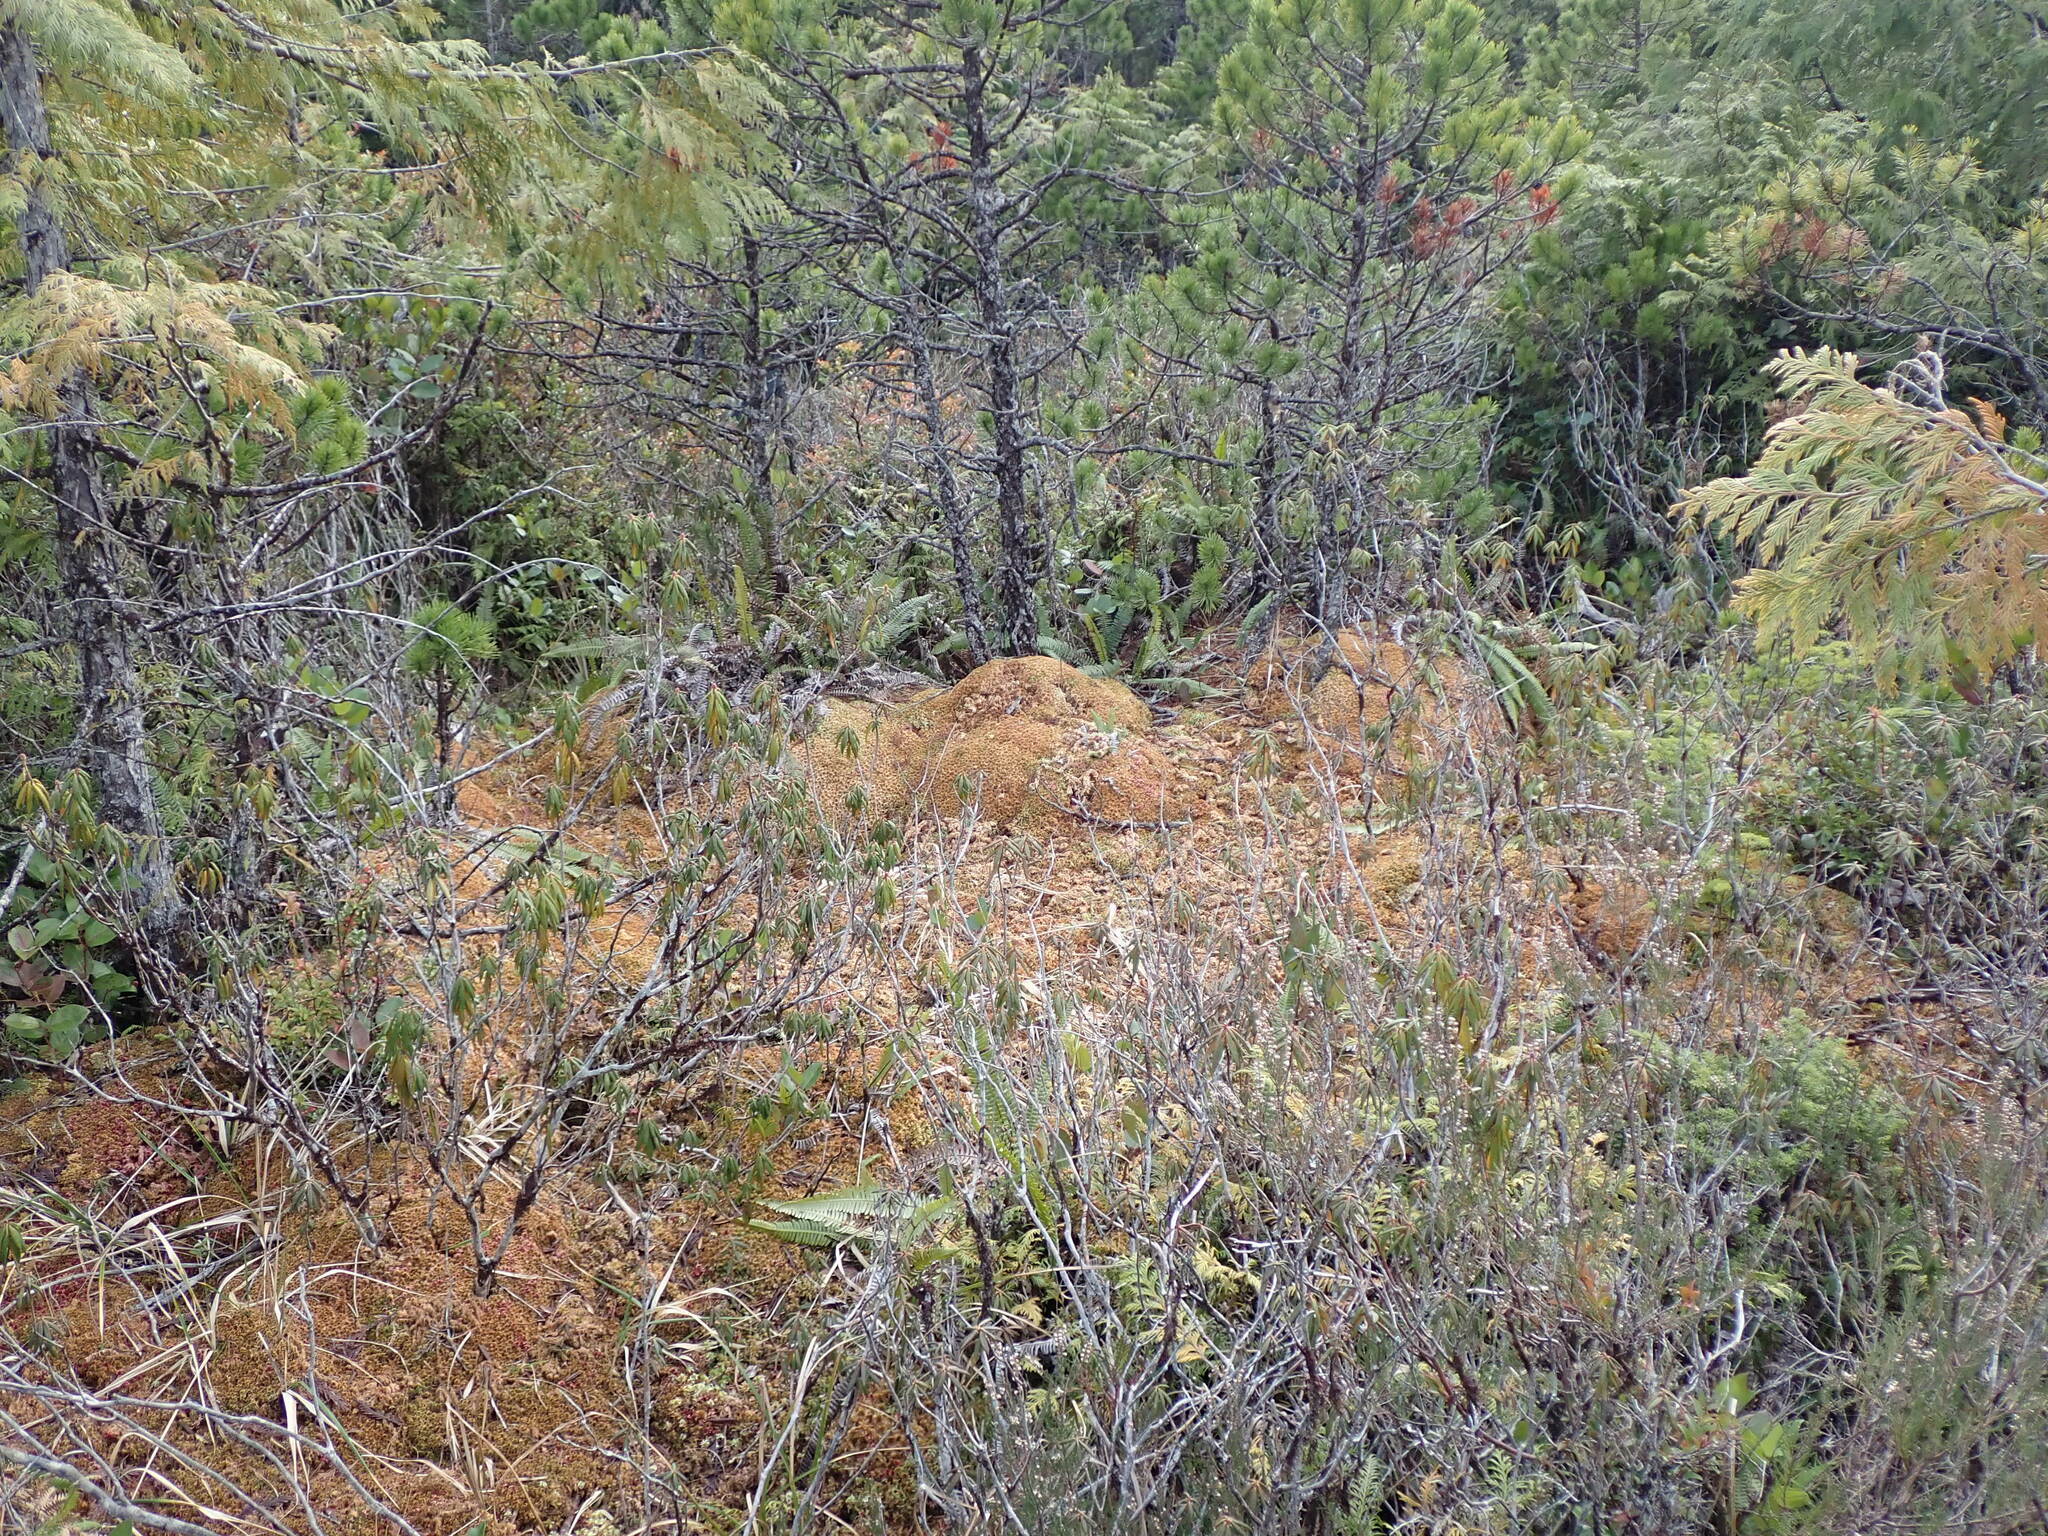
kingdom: Plantae
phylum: Bryophyta
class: Sphagnopsida
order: Sphagnales
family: Sphagnaceae
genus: Sphagnum
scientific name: Sphagnum fuscum
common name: Brown peat moss
